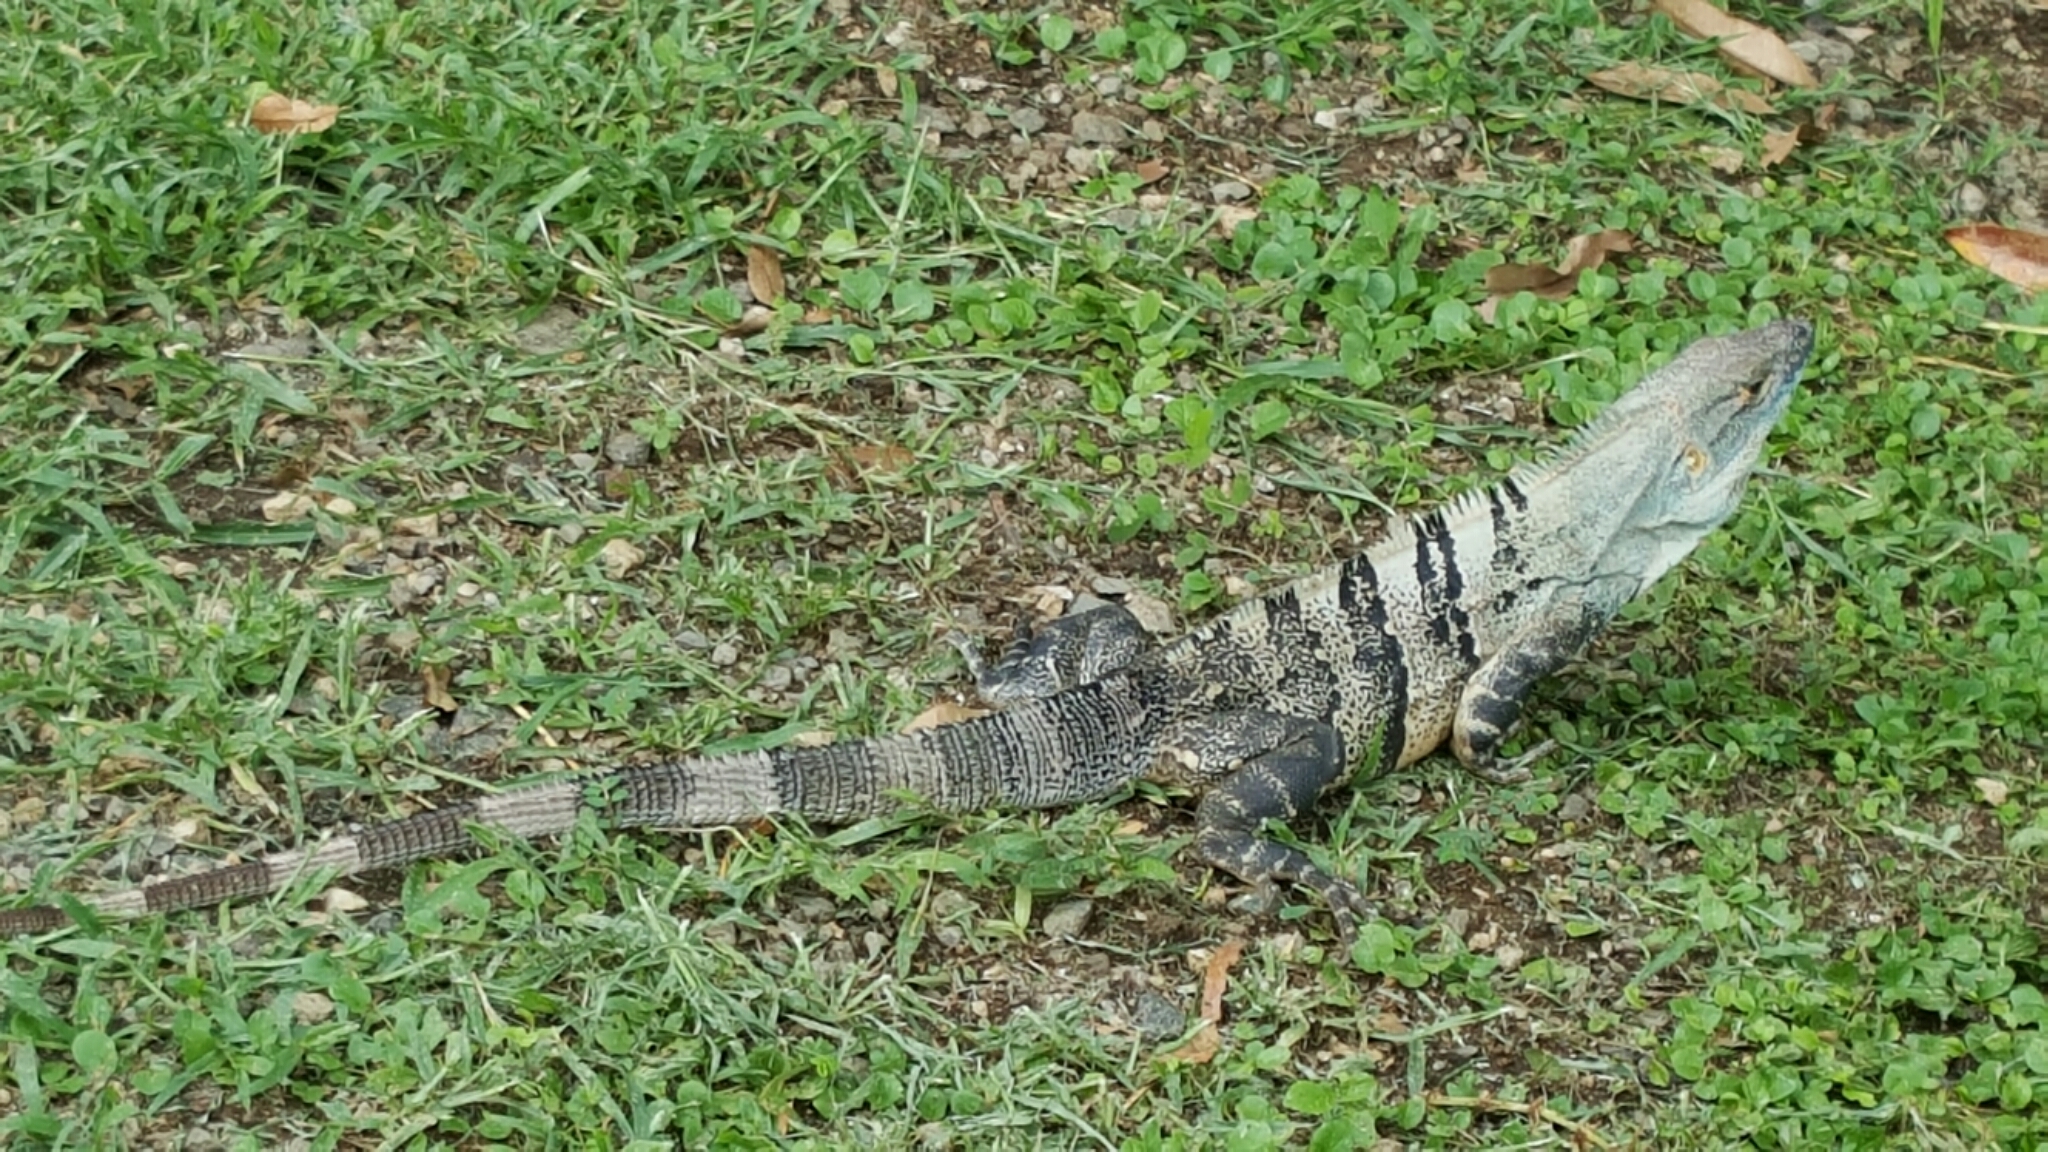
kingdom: Animalia
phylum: Chordata
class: Squamata
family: Iguanidae
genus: Ctenosaura
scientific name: Ctenosaura similis
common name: Black spiny-tailed iguana
